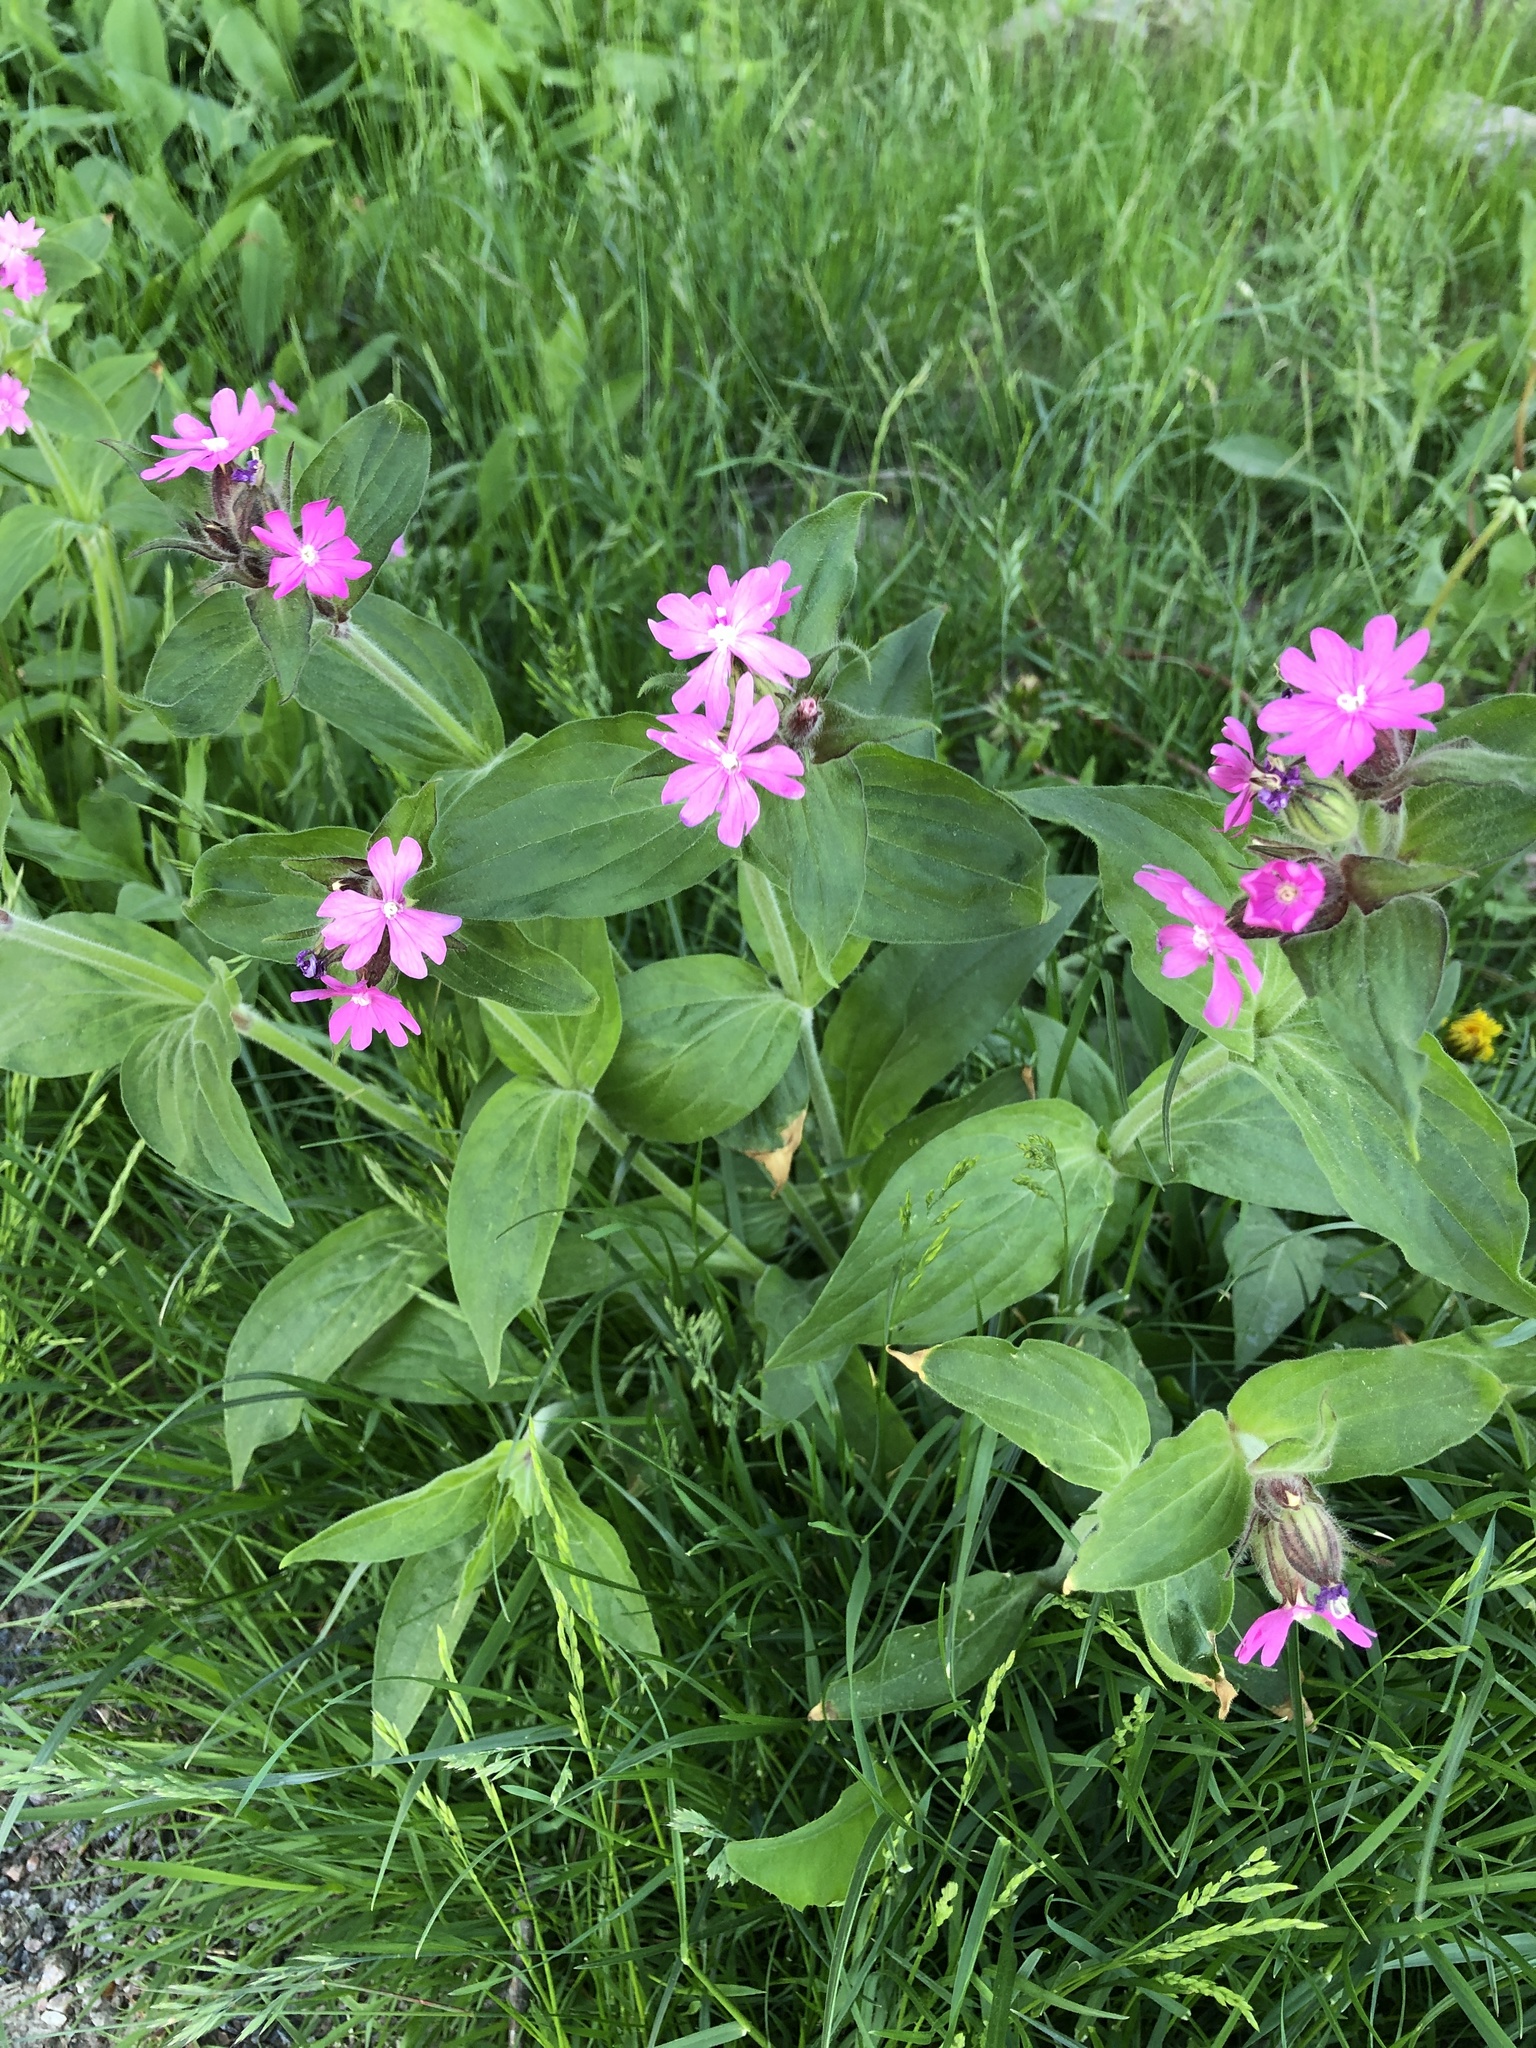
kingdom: Plantae
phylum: Tracheophyta
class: Magnoliopsida
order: Caryophyllales
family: Caryophyllaceae
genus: Silene
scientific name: Silene dioica
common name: Red campion
